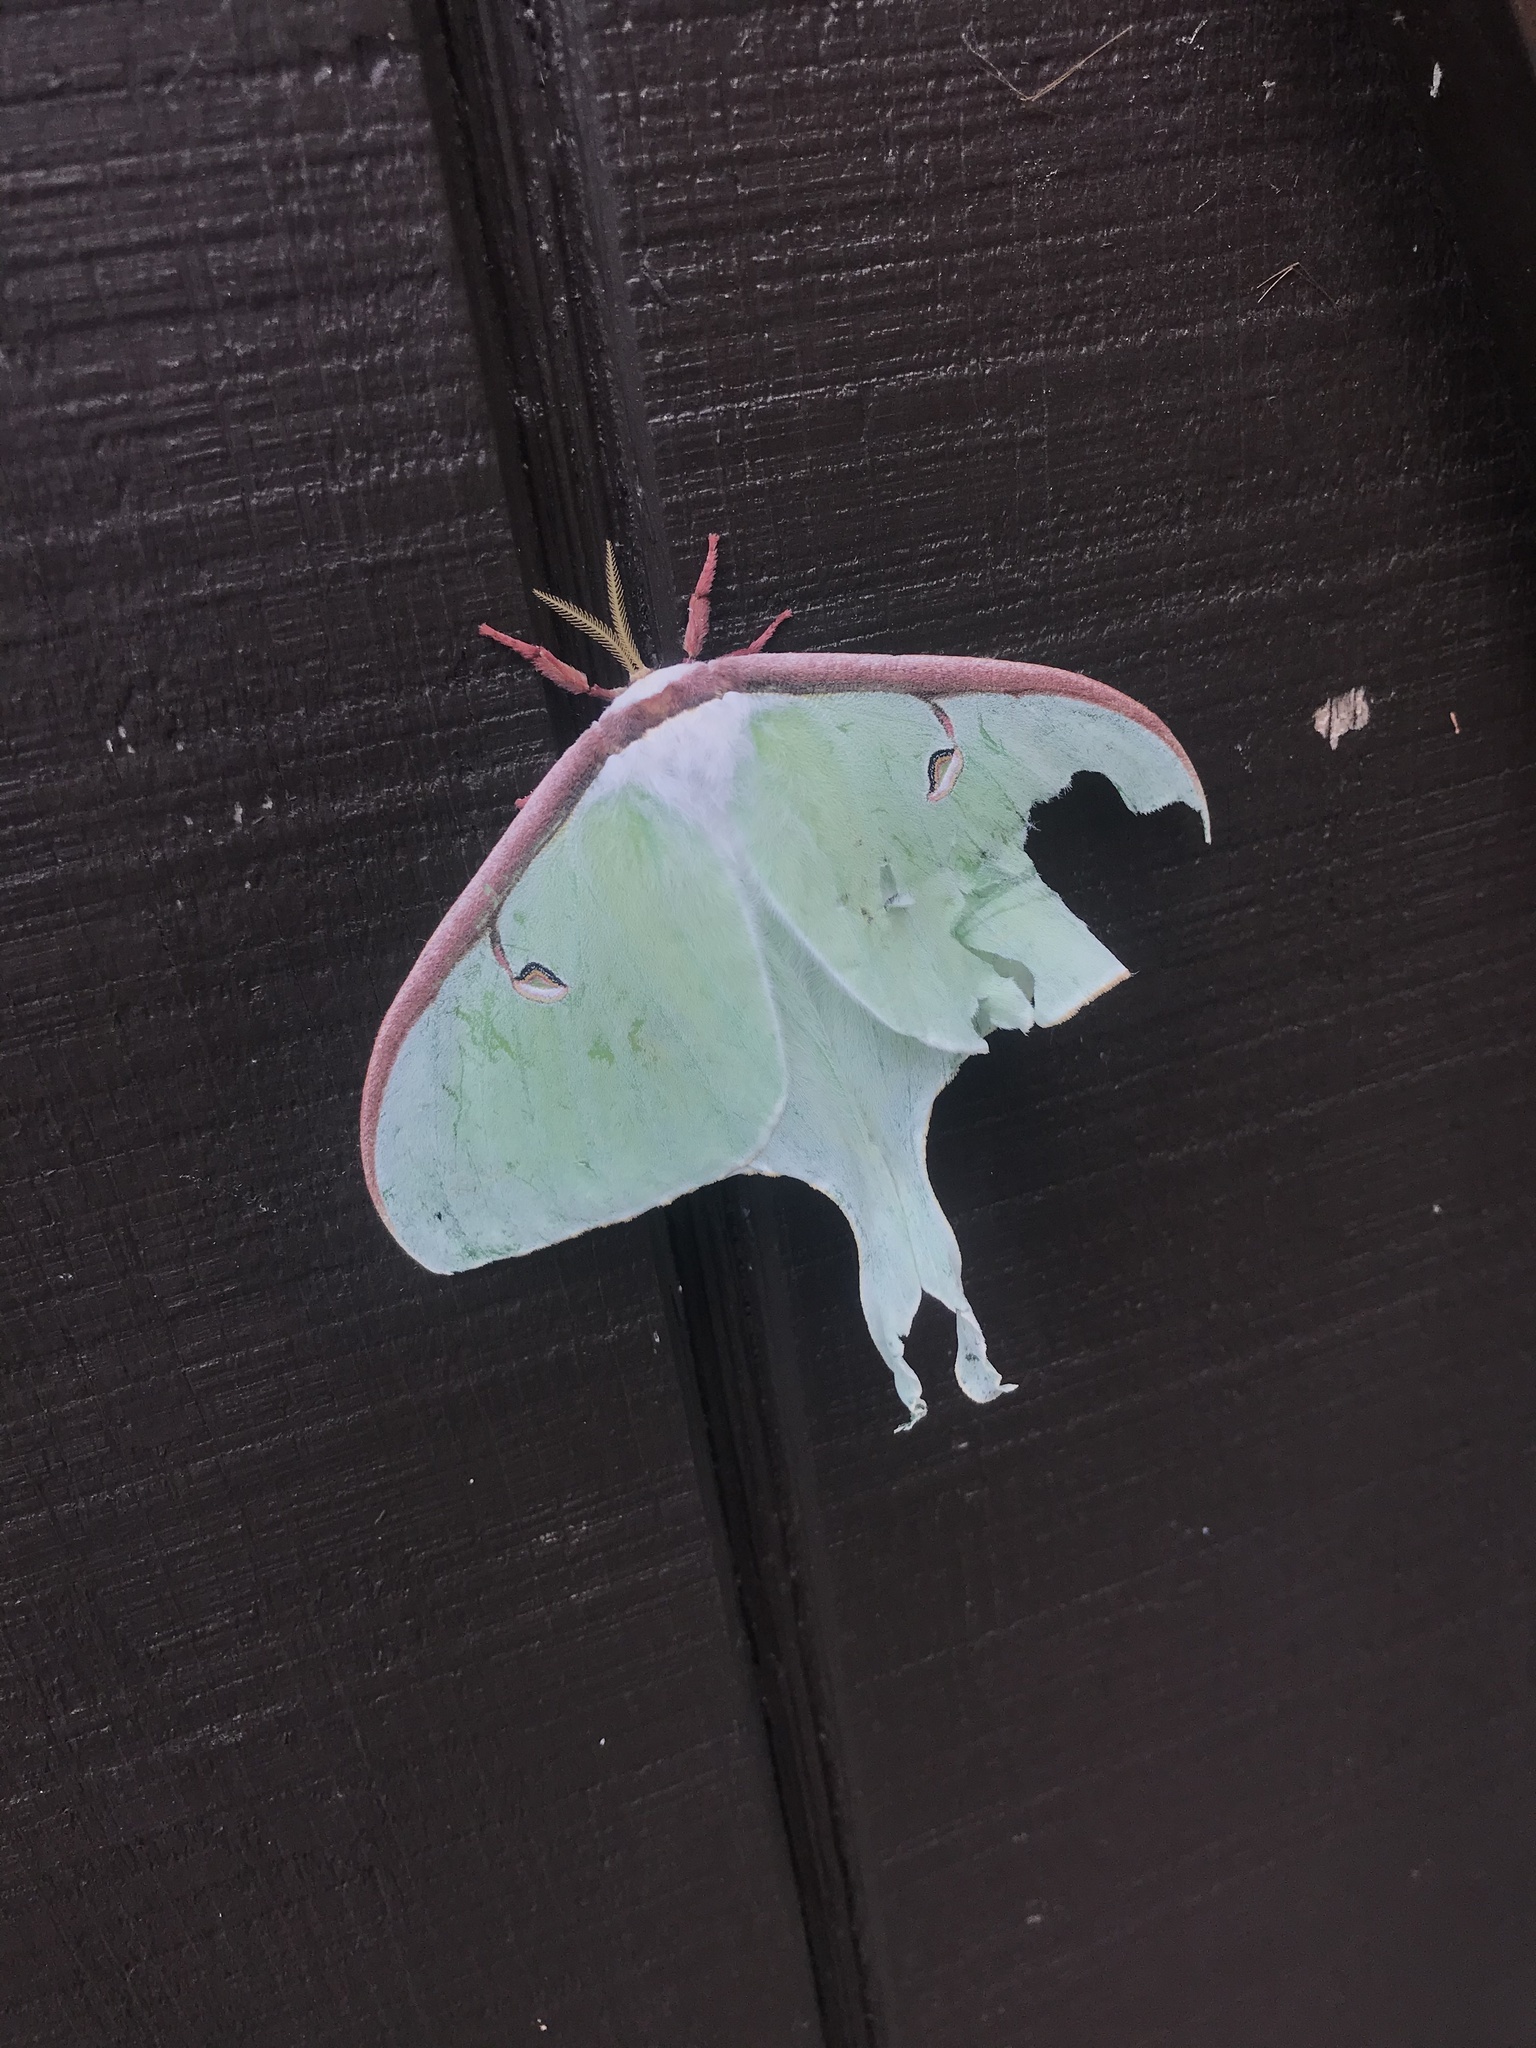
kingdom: Animalia
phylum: Arthropoda
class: Insecta
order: Lepidoptera
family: Saturniidae
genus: Actias
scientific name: Actias luna
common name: Luna moth
